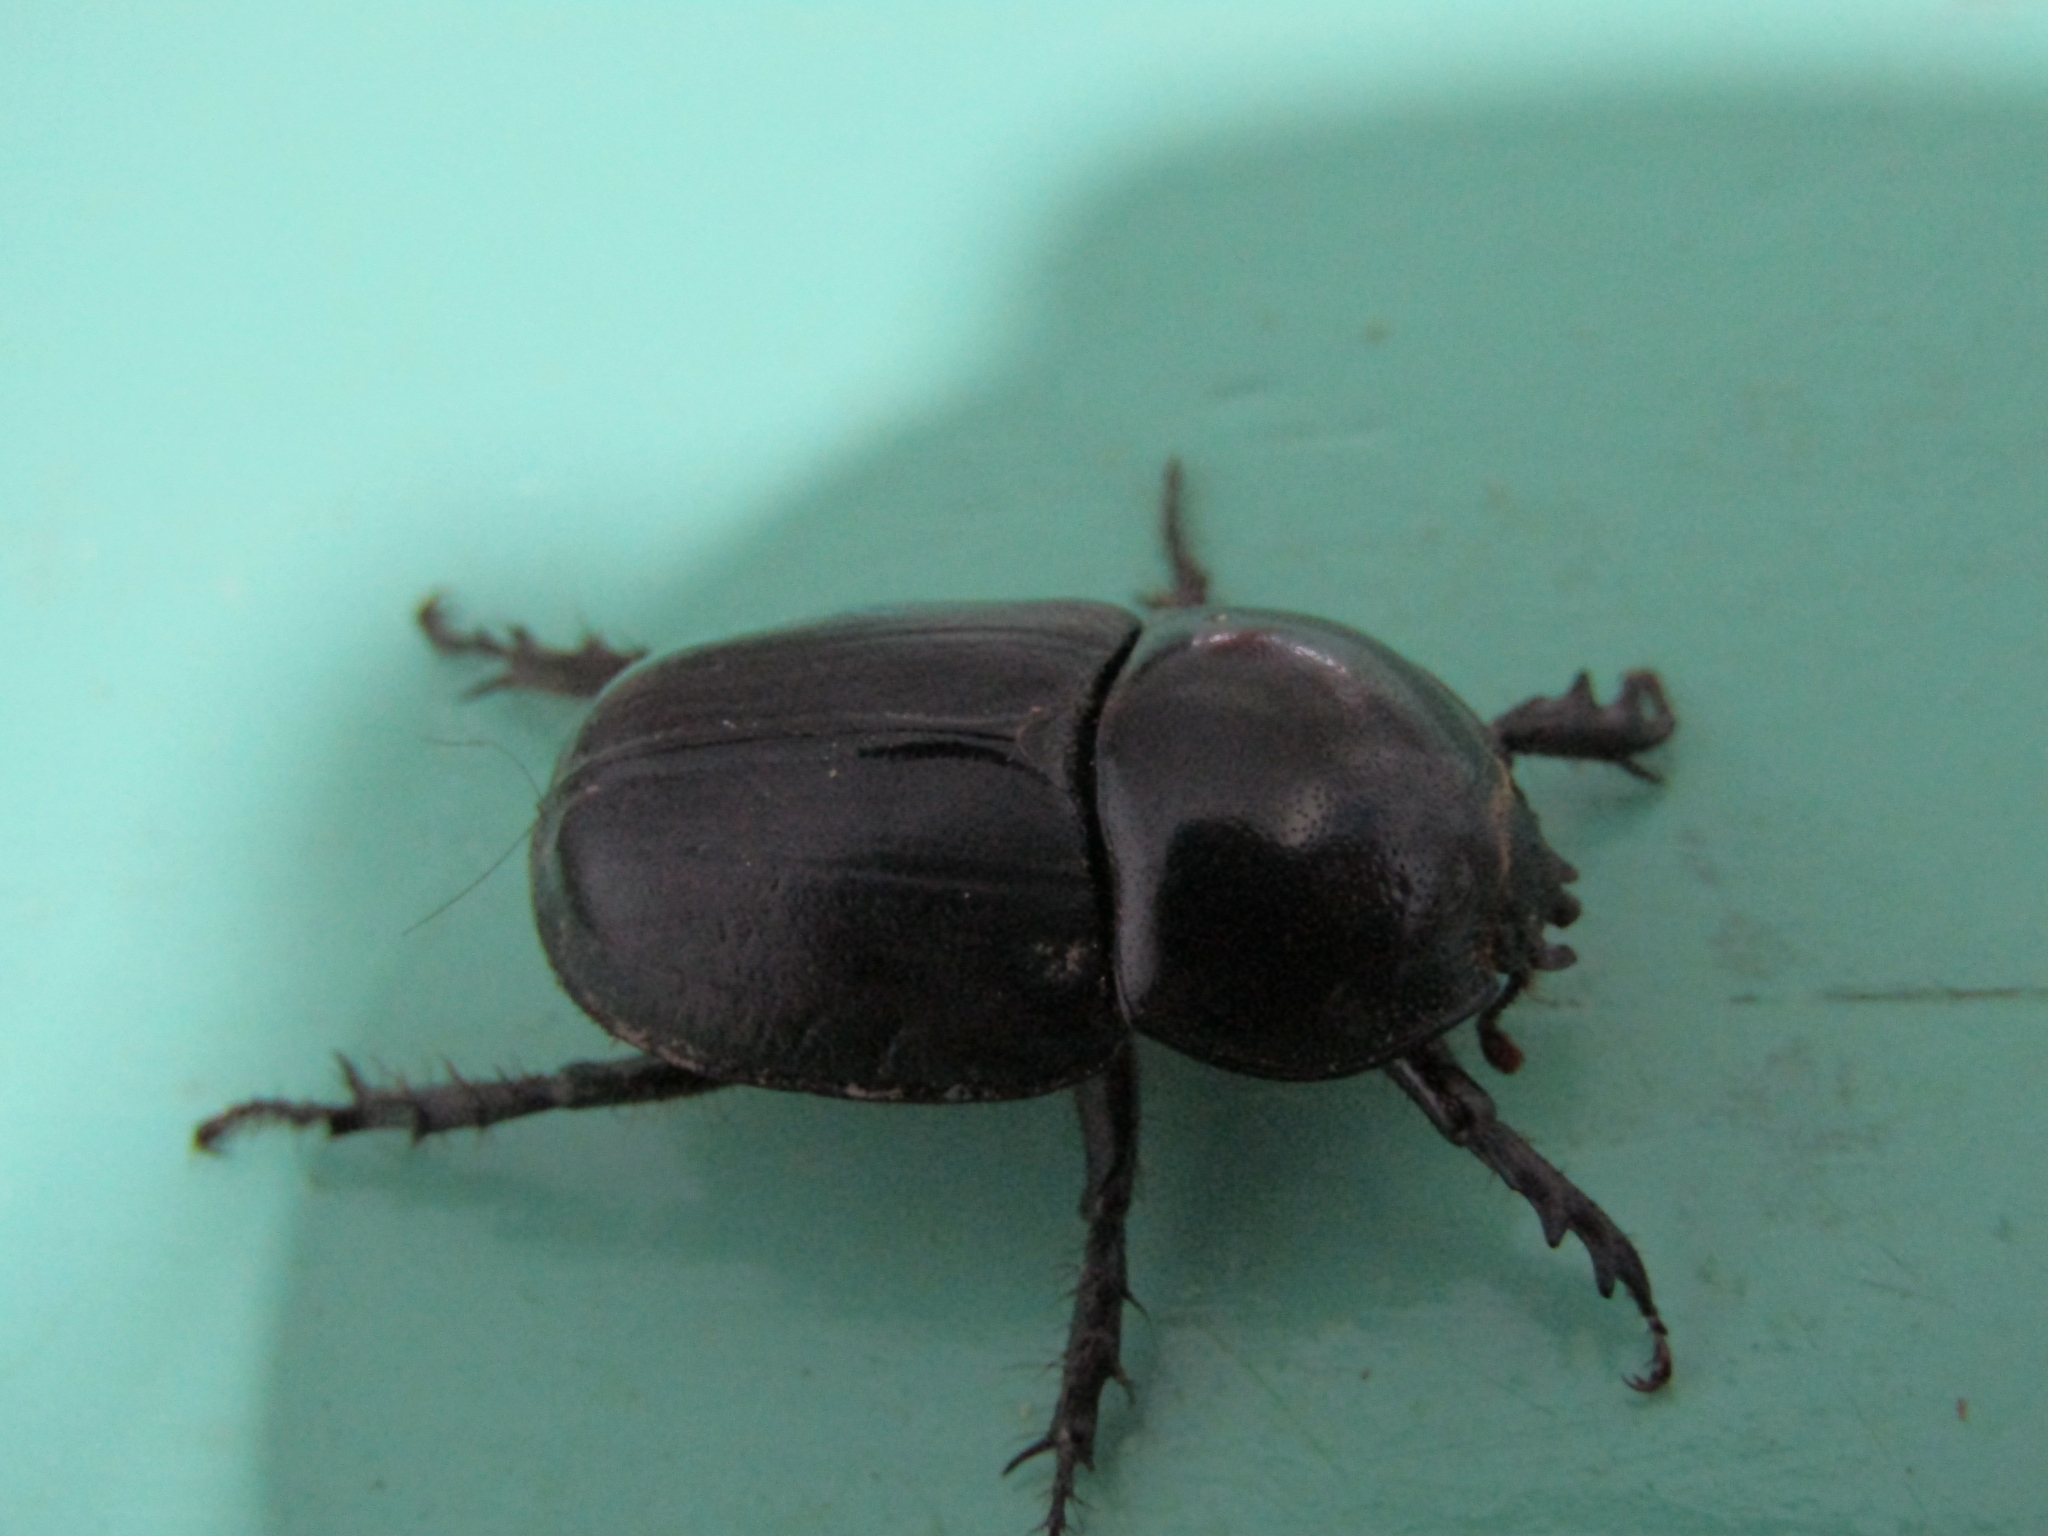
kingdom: Animalia
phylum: Arthropoda
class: Insecta
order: Coleoptera
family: Scarabaeidae
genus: Diloboderus
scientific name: Diloboderus abderus
